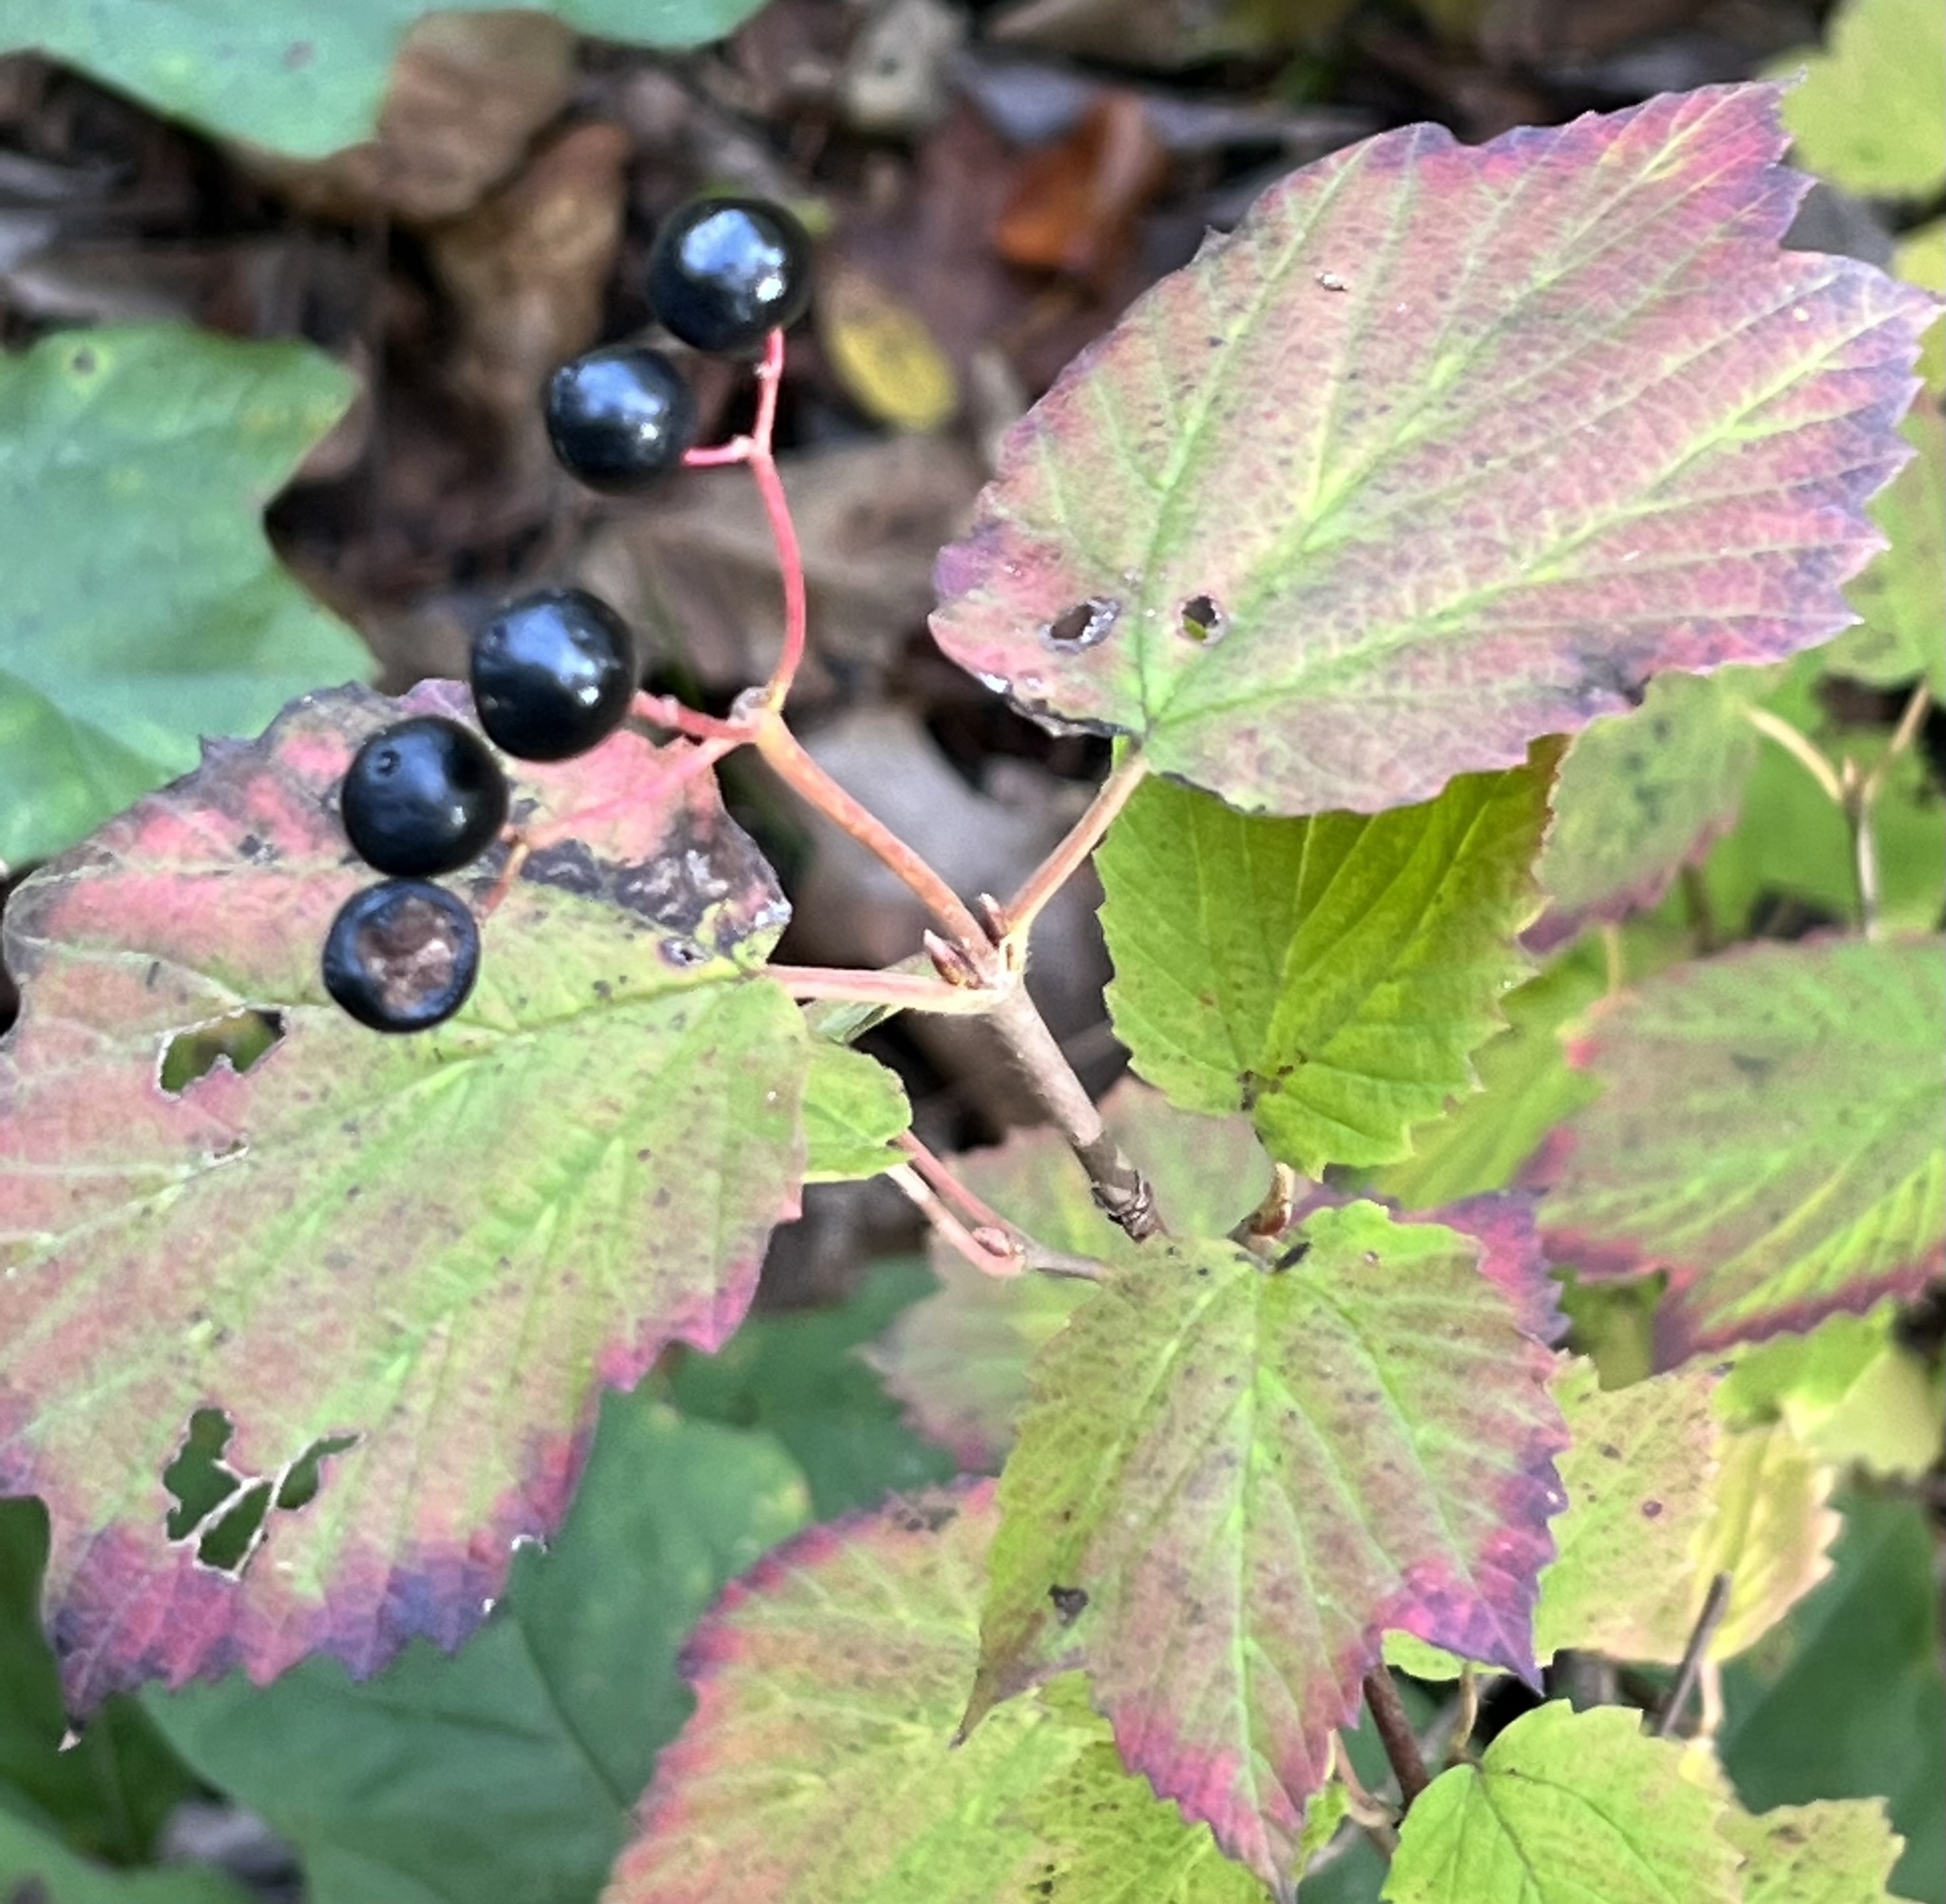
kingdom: Plantae
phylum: Tracheophyta
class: Magnoliopsida
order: Dipsacales
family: Viburnaceae
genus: Viburnum
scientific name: Viburnum acerifolium
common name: Dockmackie
